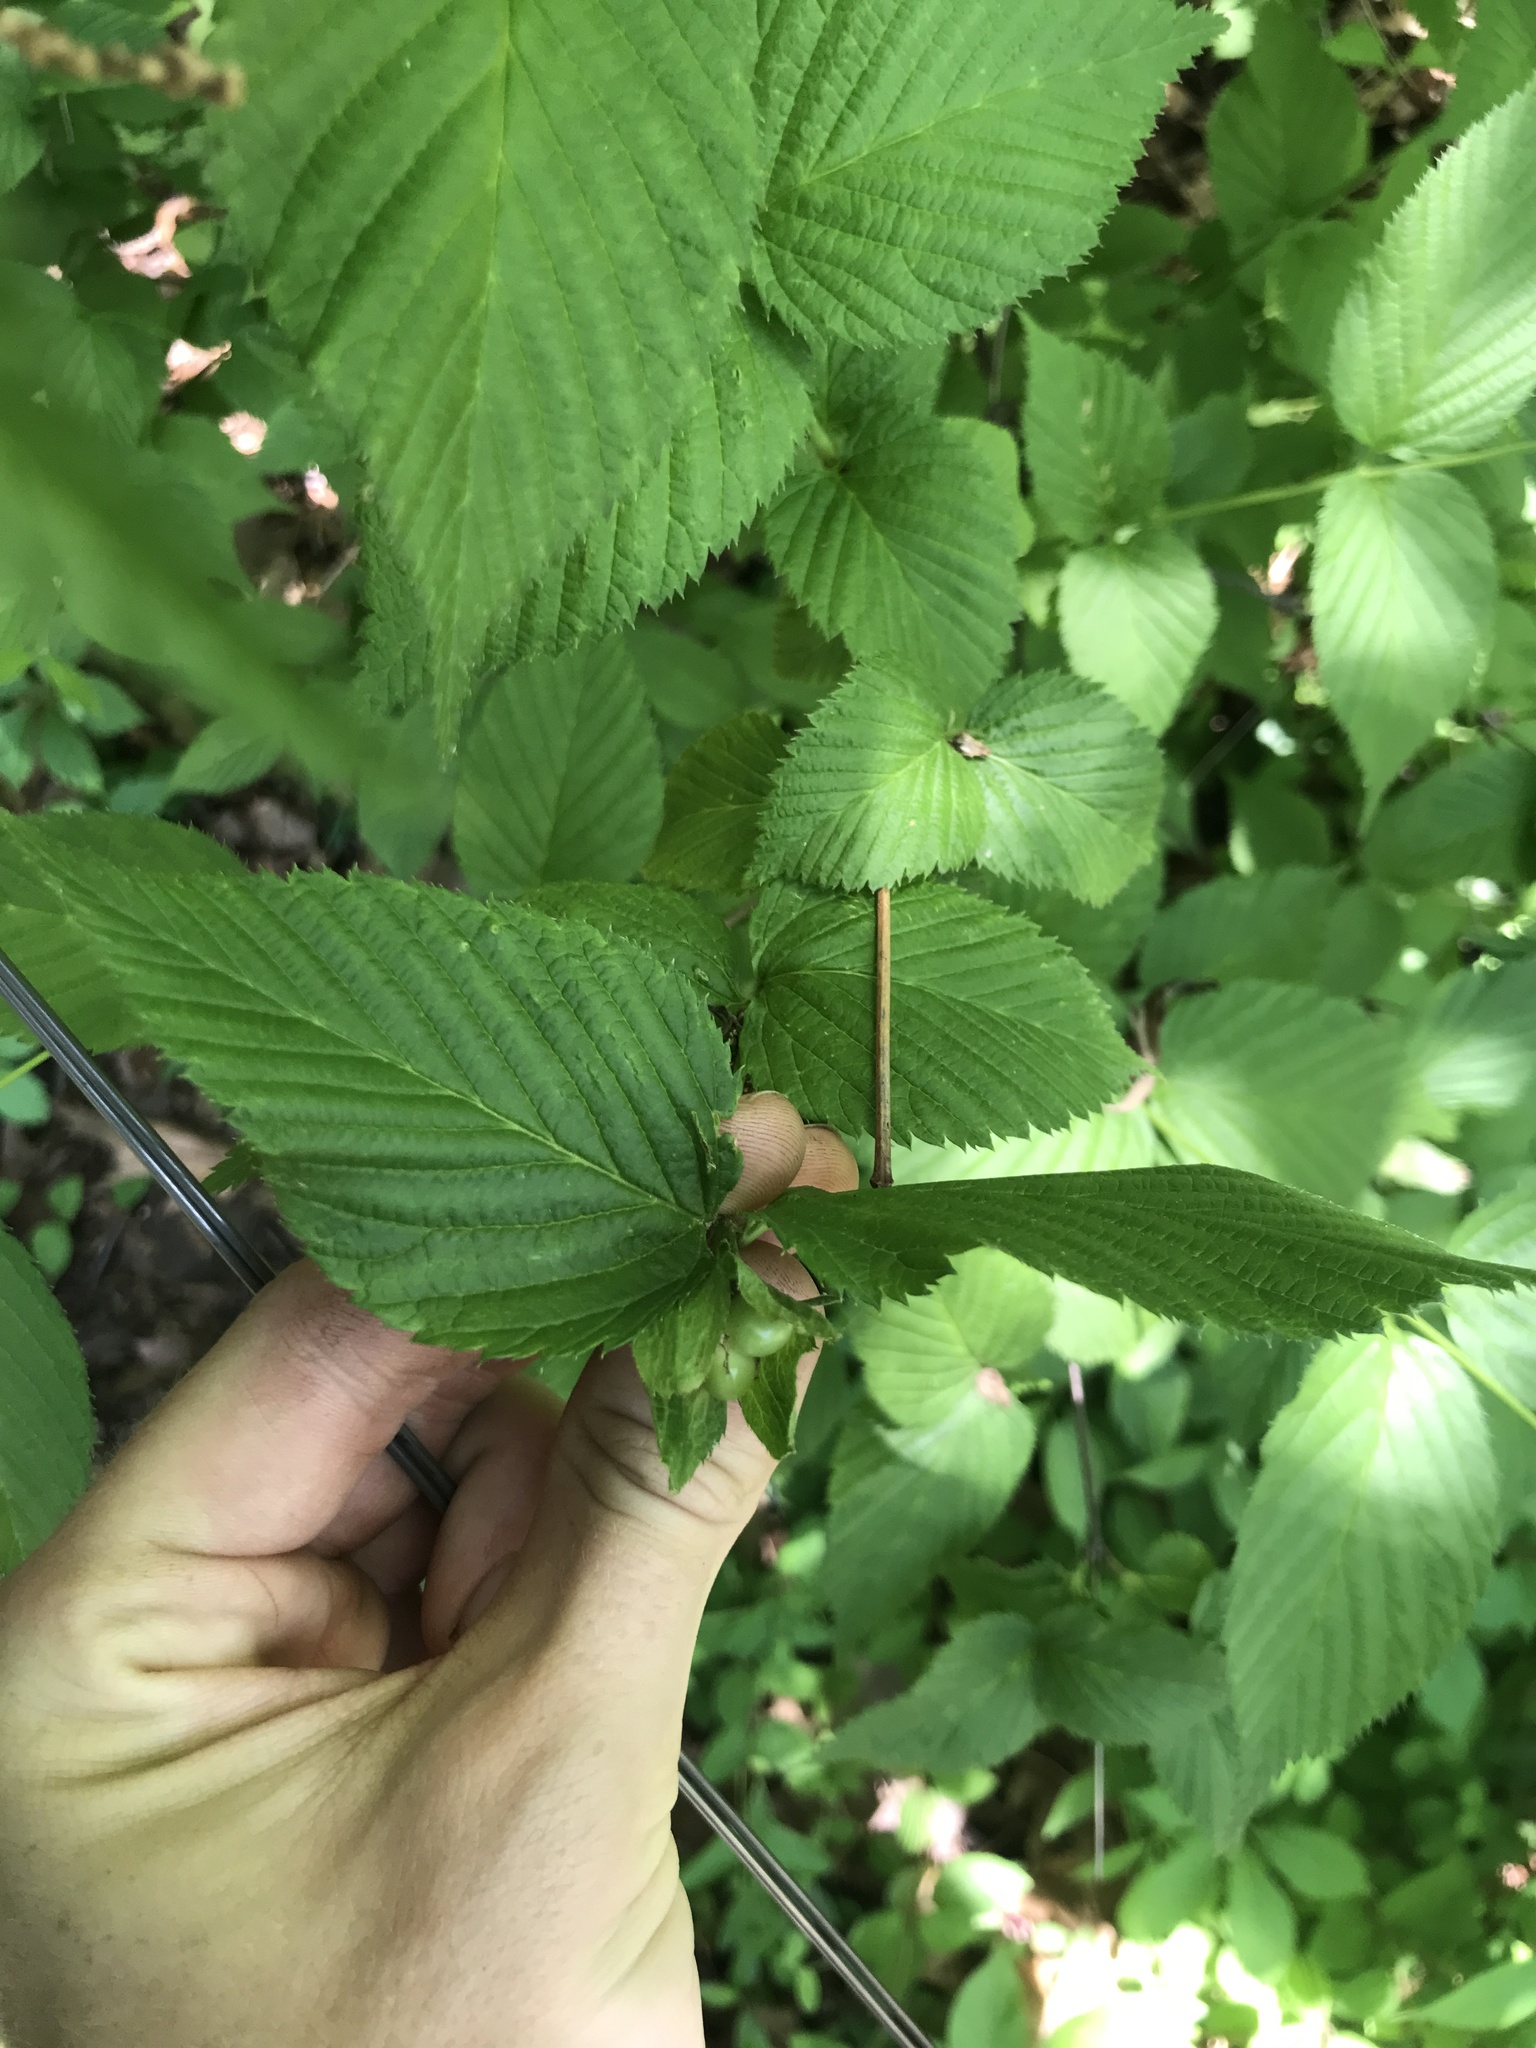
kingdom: Plantae
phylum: Tracheophyta
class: Magnoliopsida
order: Rosales
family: Rosaceae
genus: Rhodotypos
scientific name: Rhodotypos scandens
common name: Jetbead
